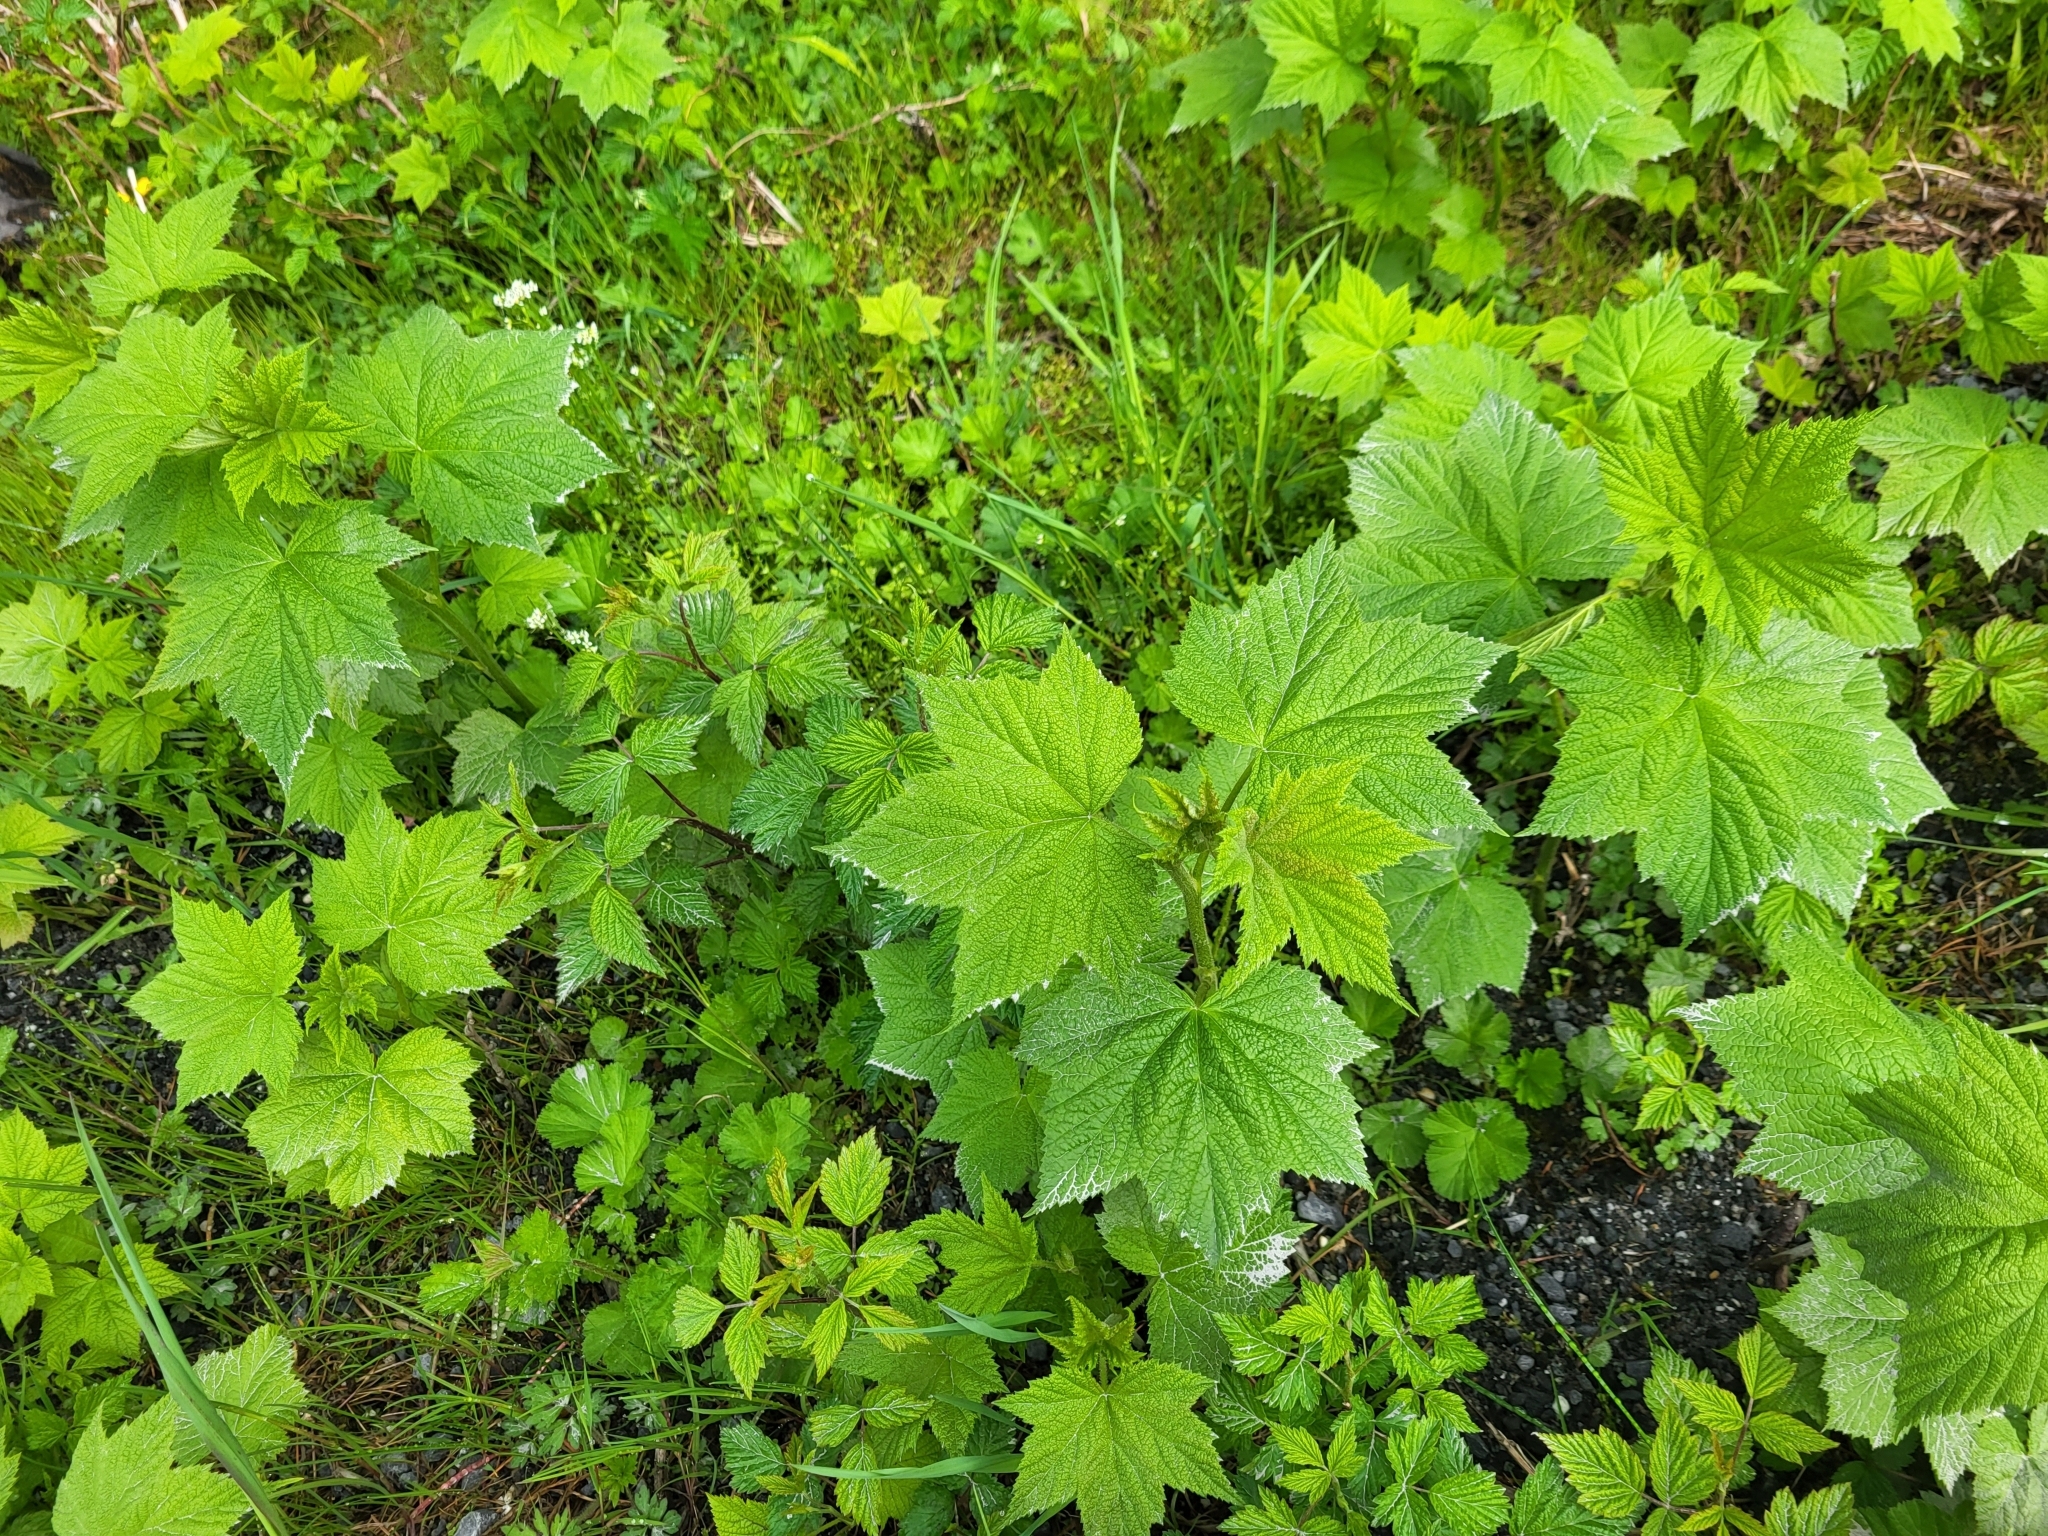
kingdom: Plantae
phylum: Tracheophyta
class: Magnoliopsida
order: Rosales
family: Rosaceae
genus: Rubus
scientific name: Rubus parviflorus
